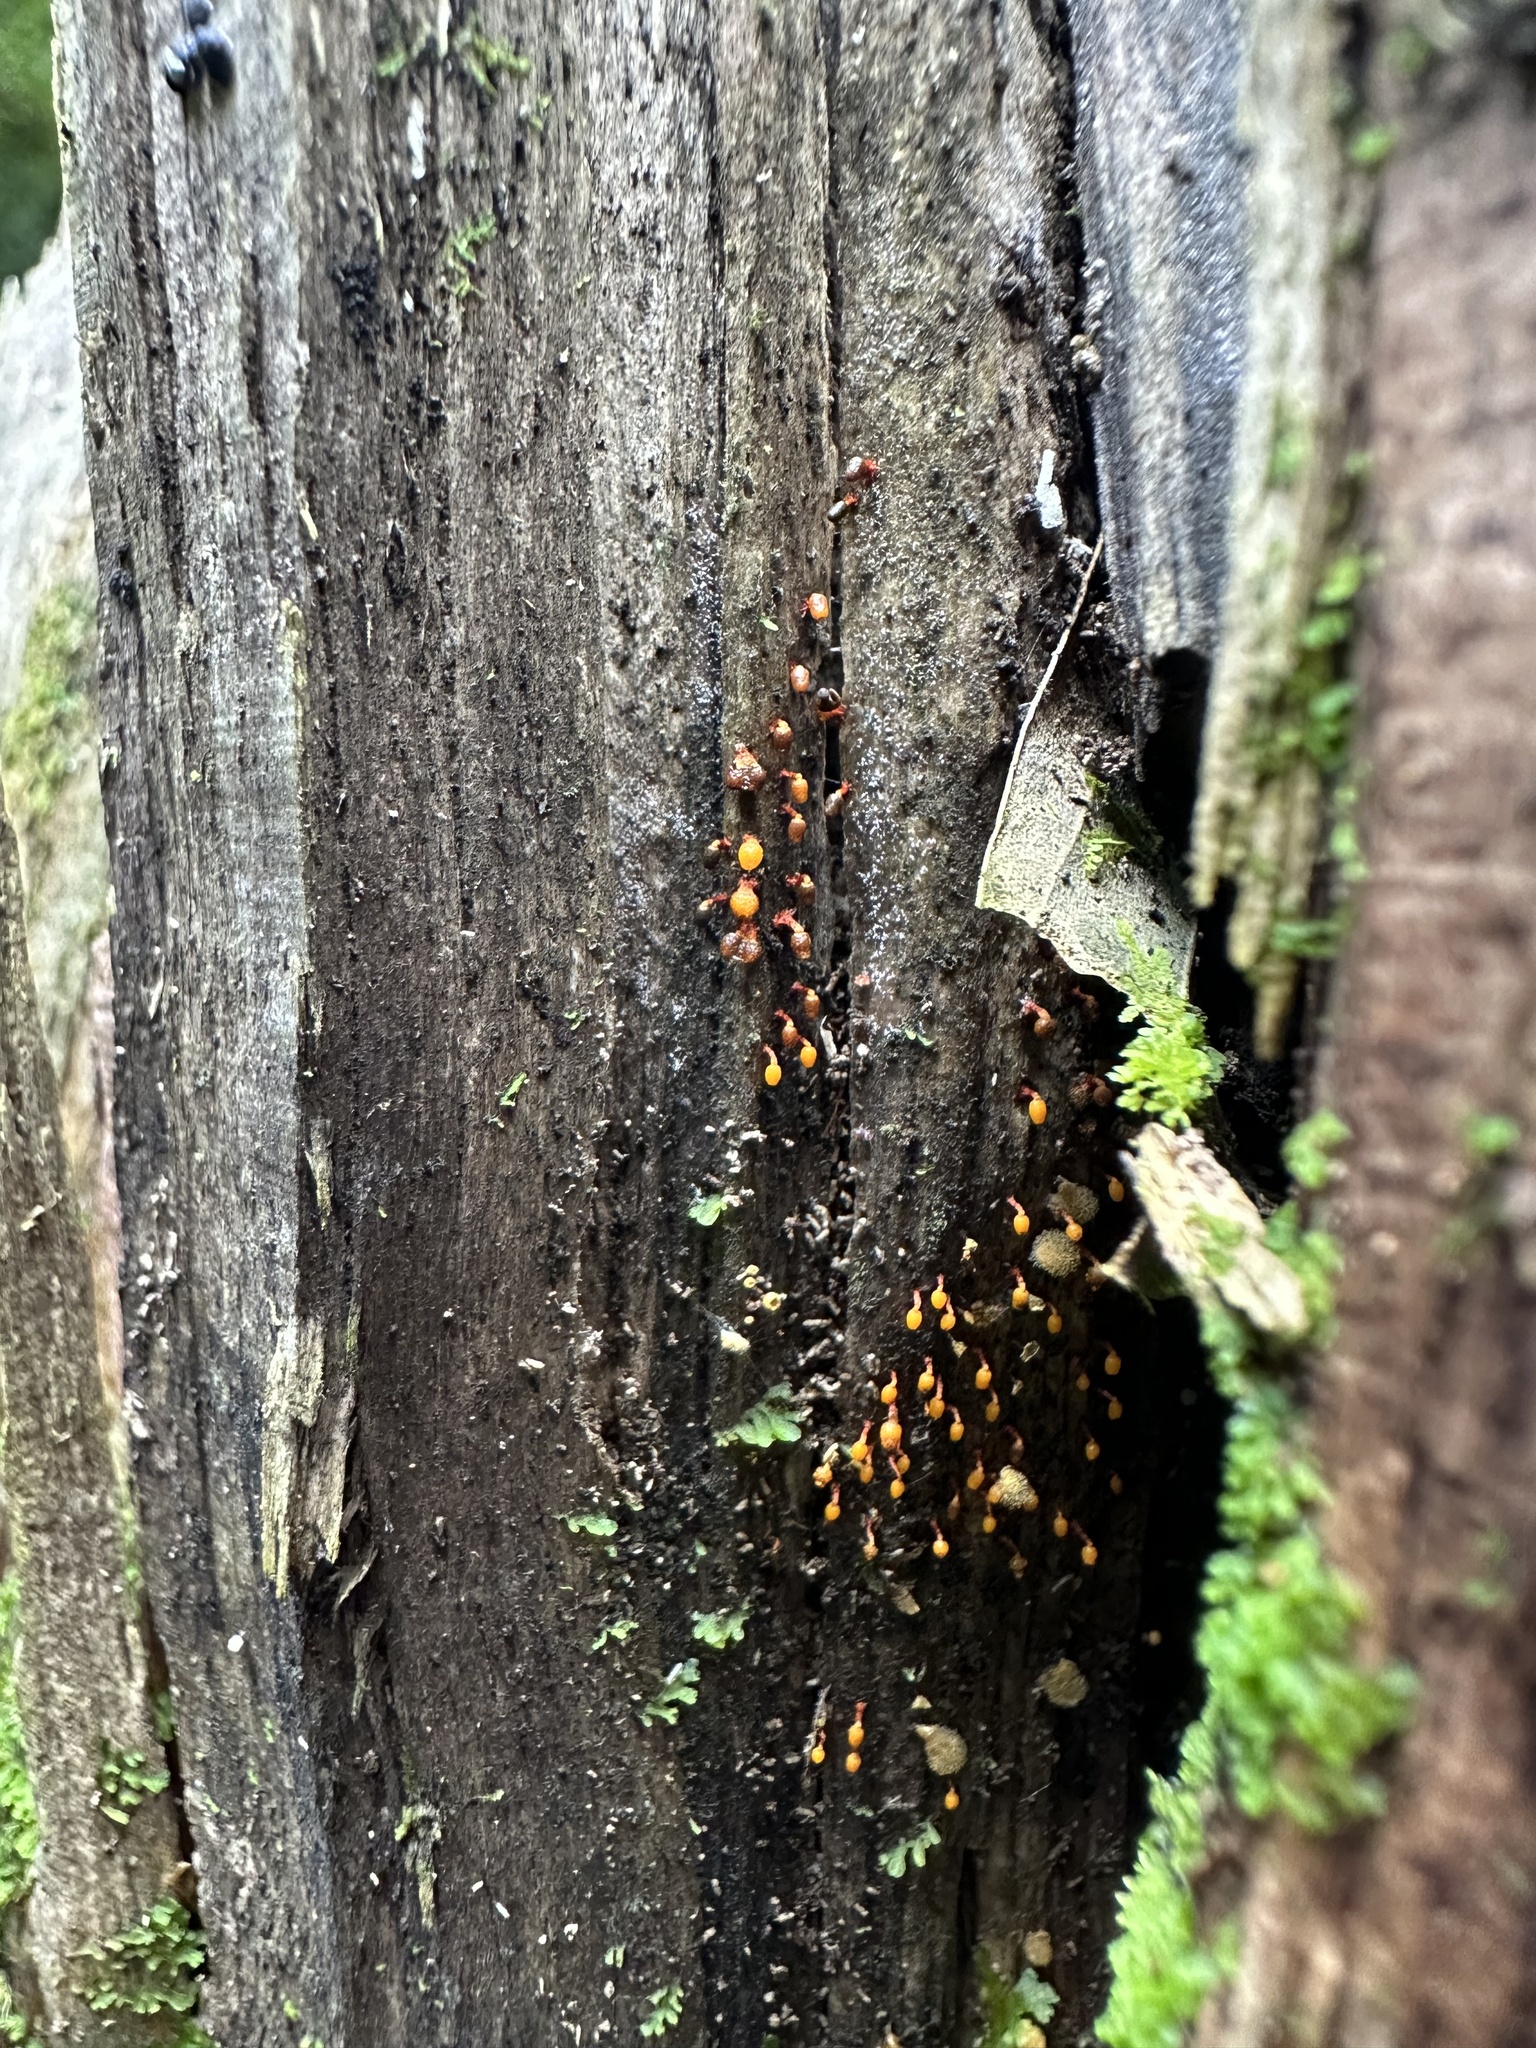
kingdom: Protozoa
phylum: Mycetozoa
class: Myxomycetes
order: Physarales
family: Physaraceae
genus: Physarella
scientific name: Physarella oblonga
